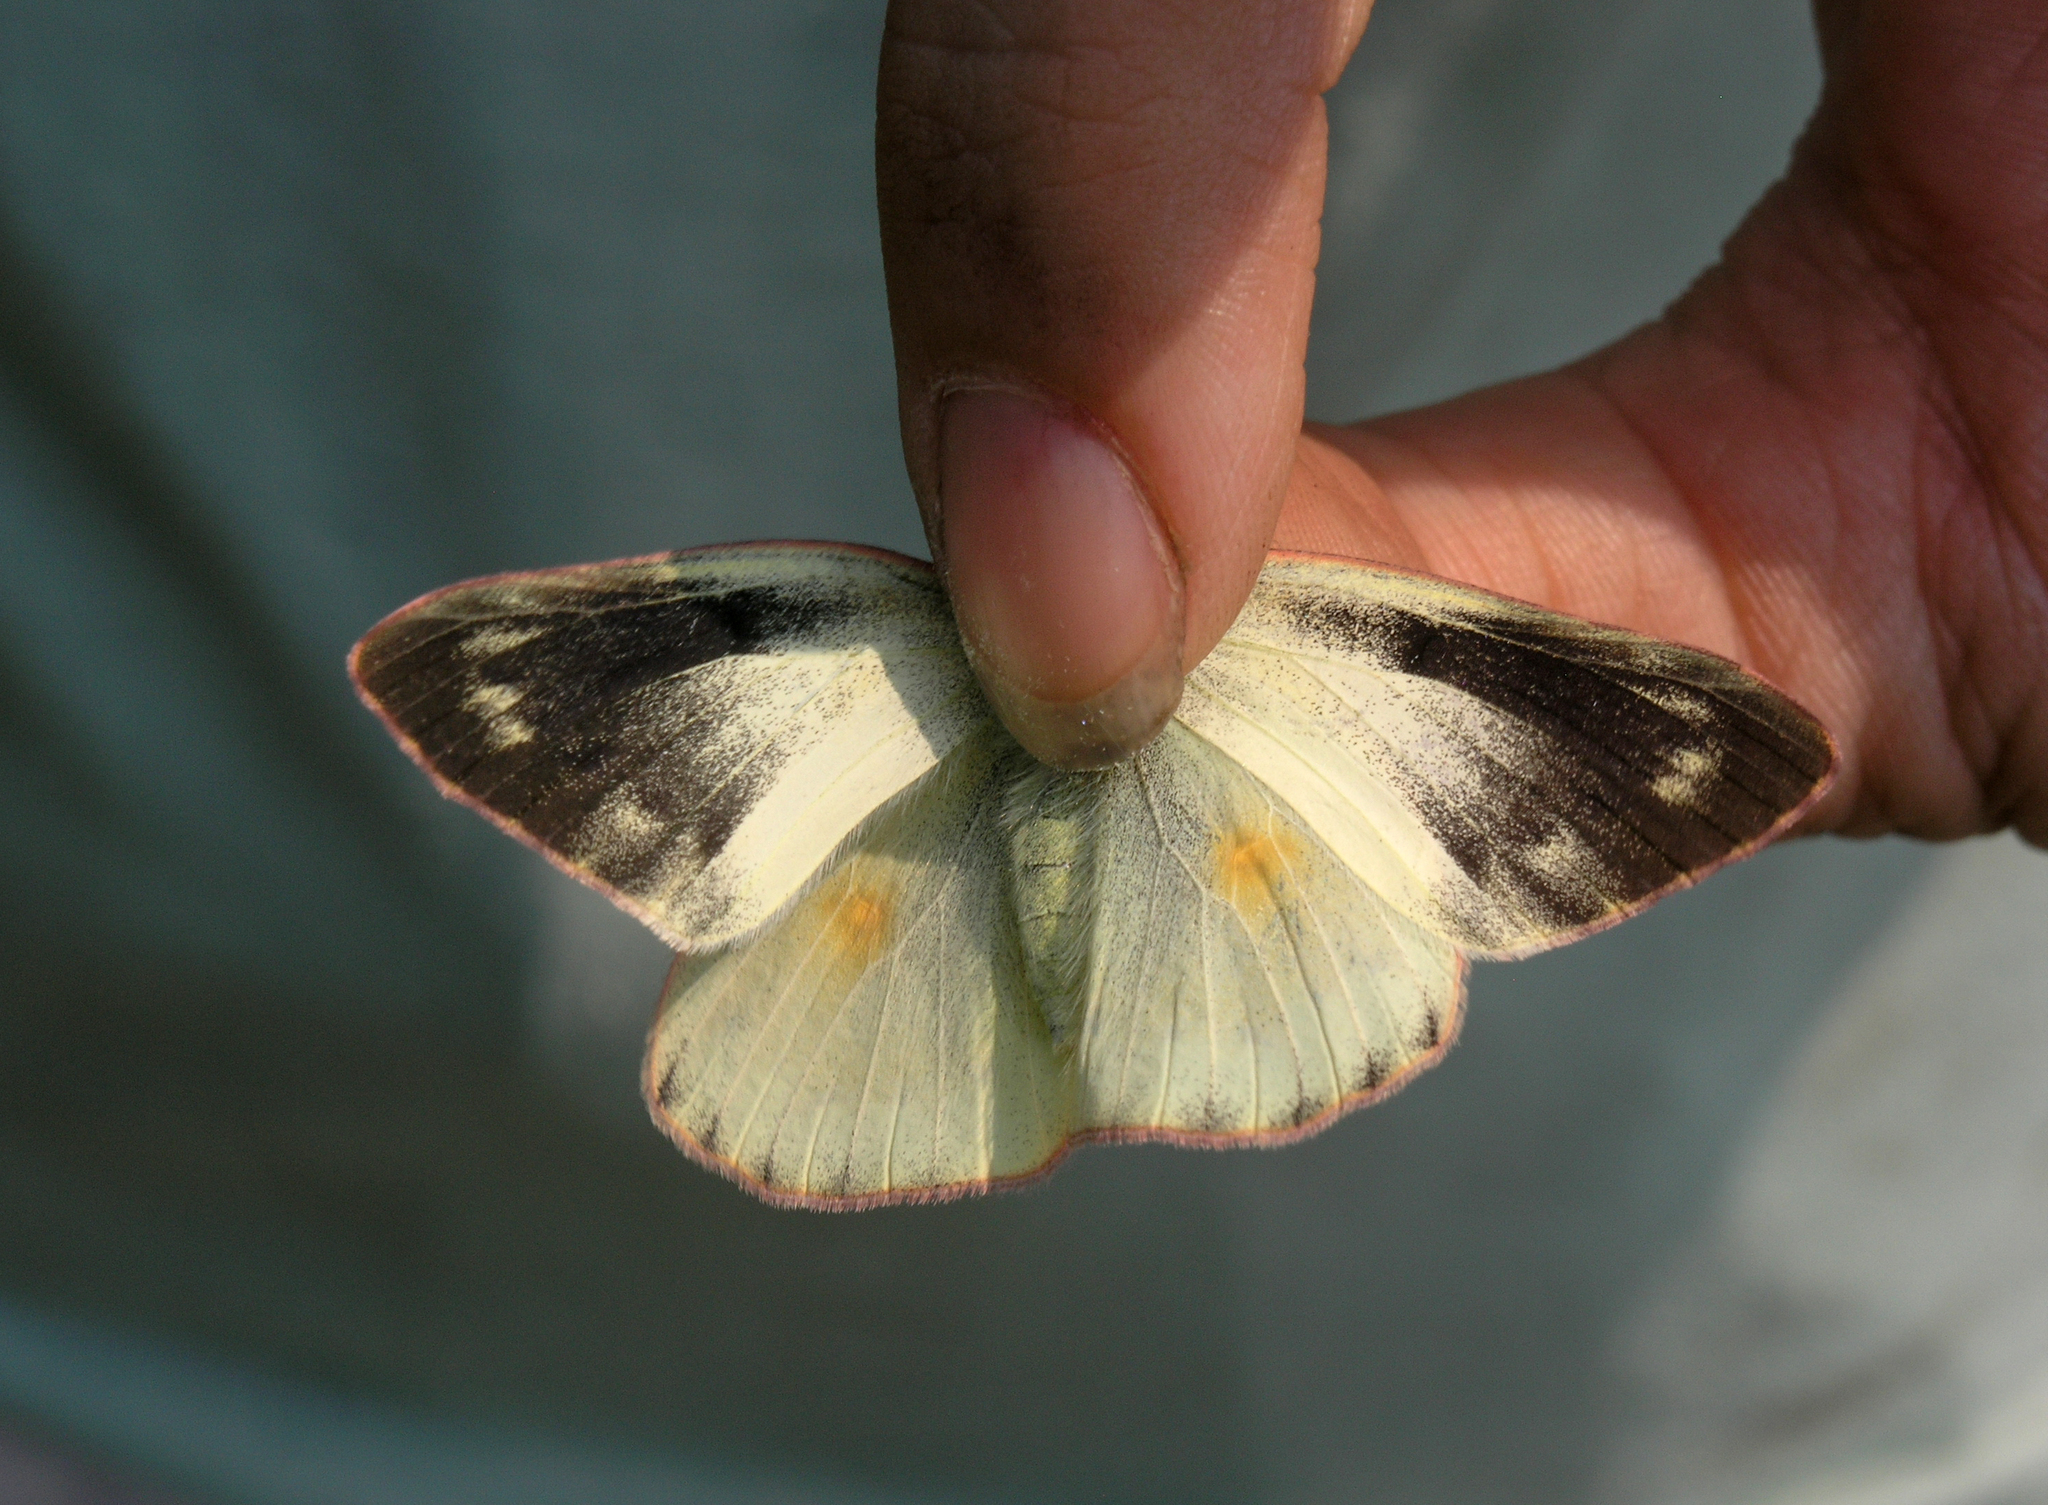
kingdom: Animalia
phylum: Arthropoda
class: Insecta
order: Lepidoptera
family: Pieridae
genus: Colias
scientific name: Colias hyale
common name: Pale clouded yellow
